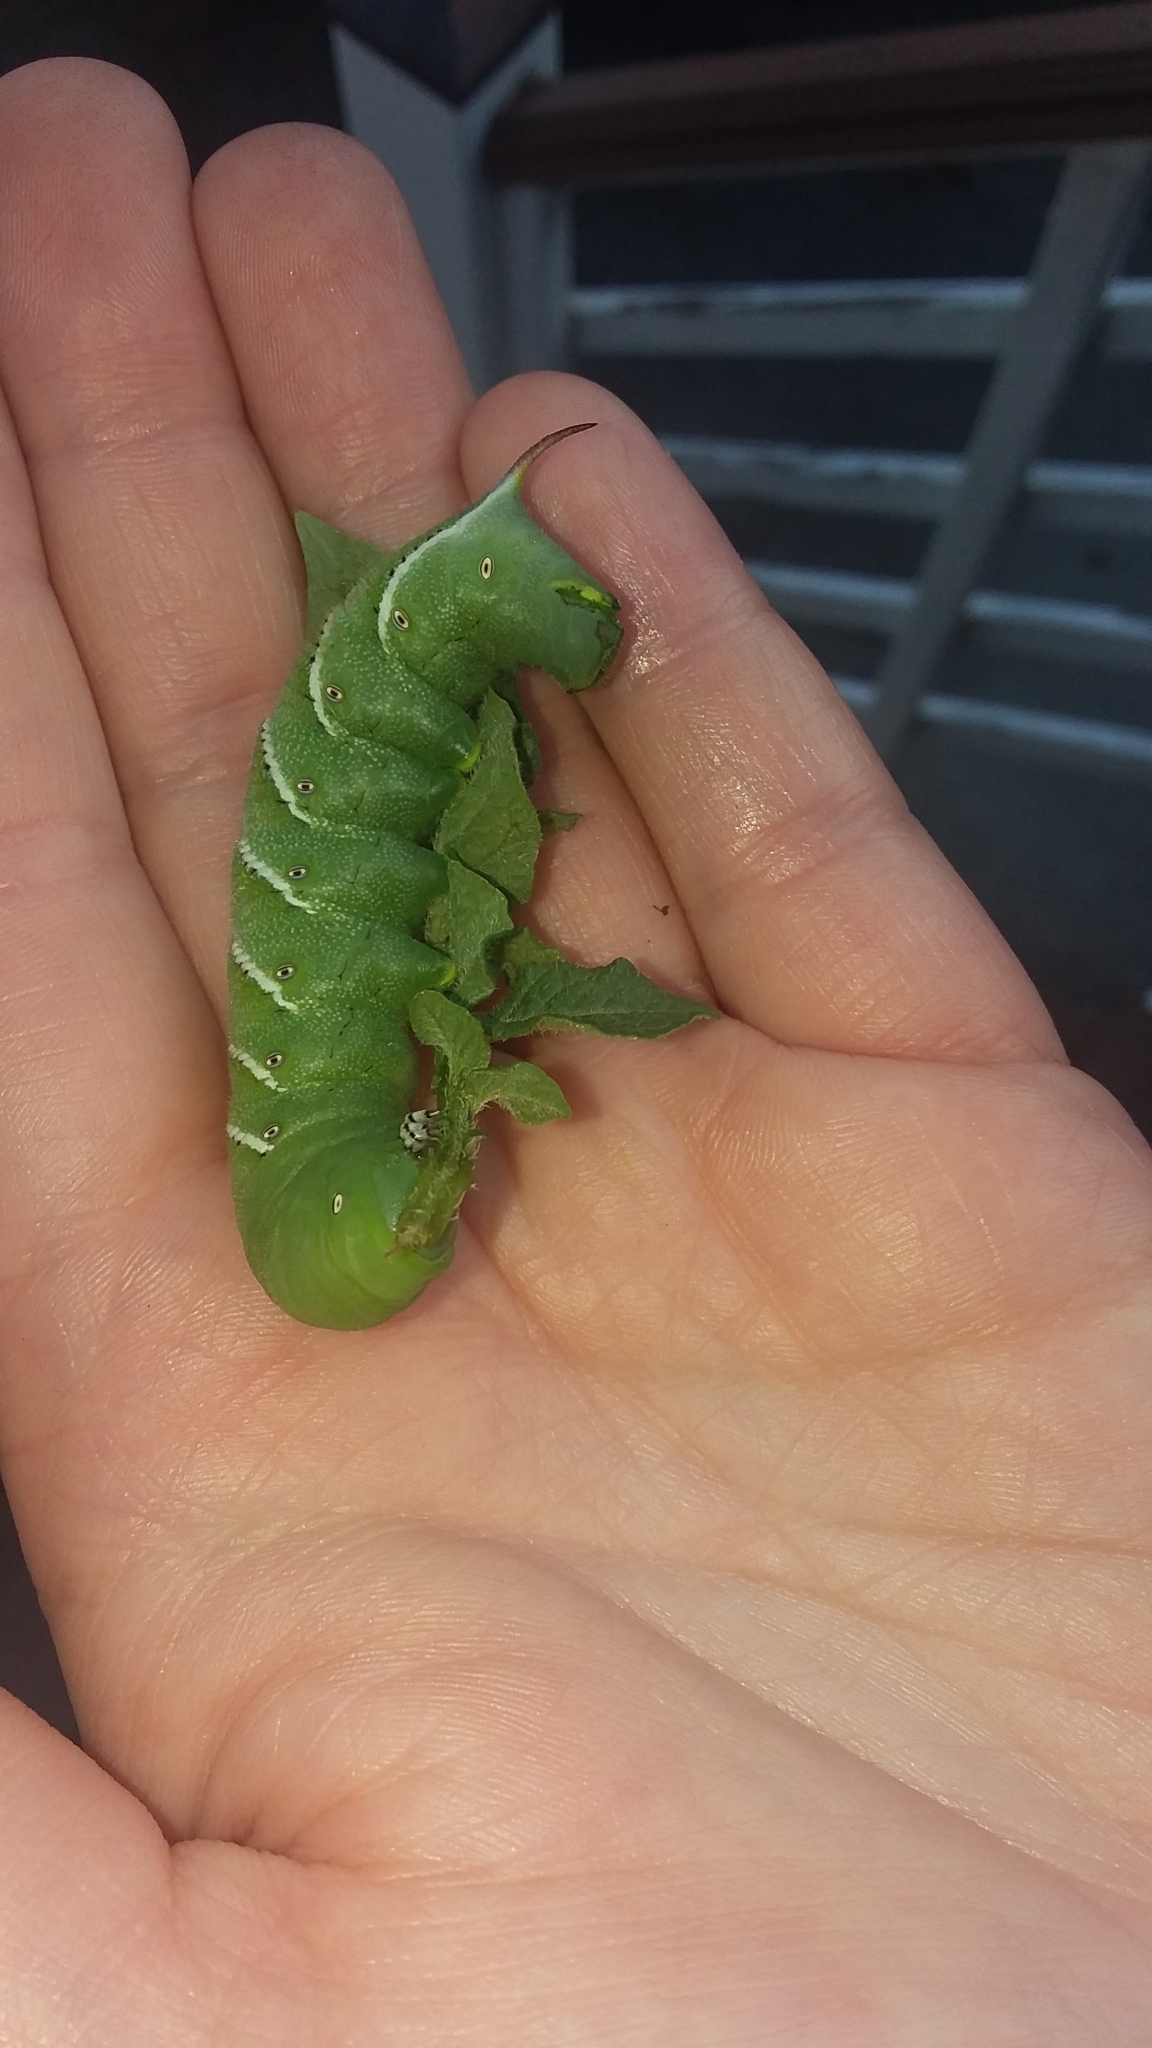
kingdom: Animalia
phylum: Arthropoda
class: Insecta
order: Lepidoptera
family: Sphingidae
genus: Manduca
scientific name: Manduca sexta
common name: Carolina sphinx
